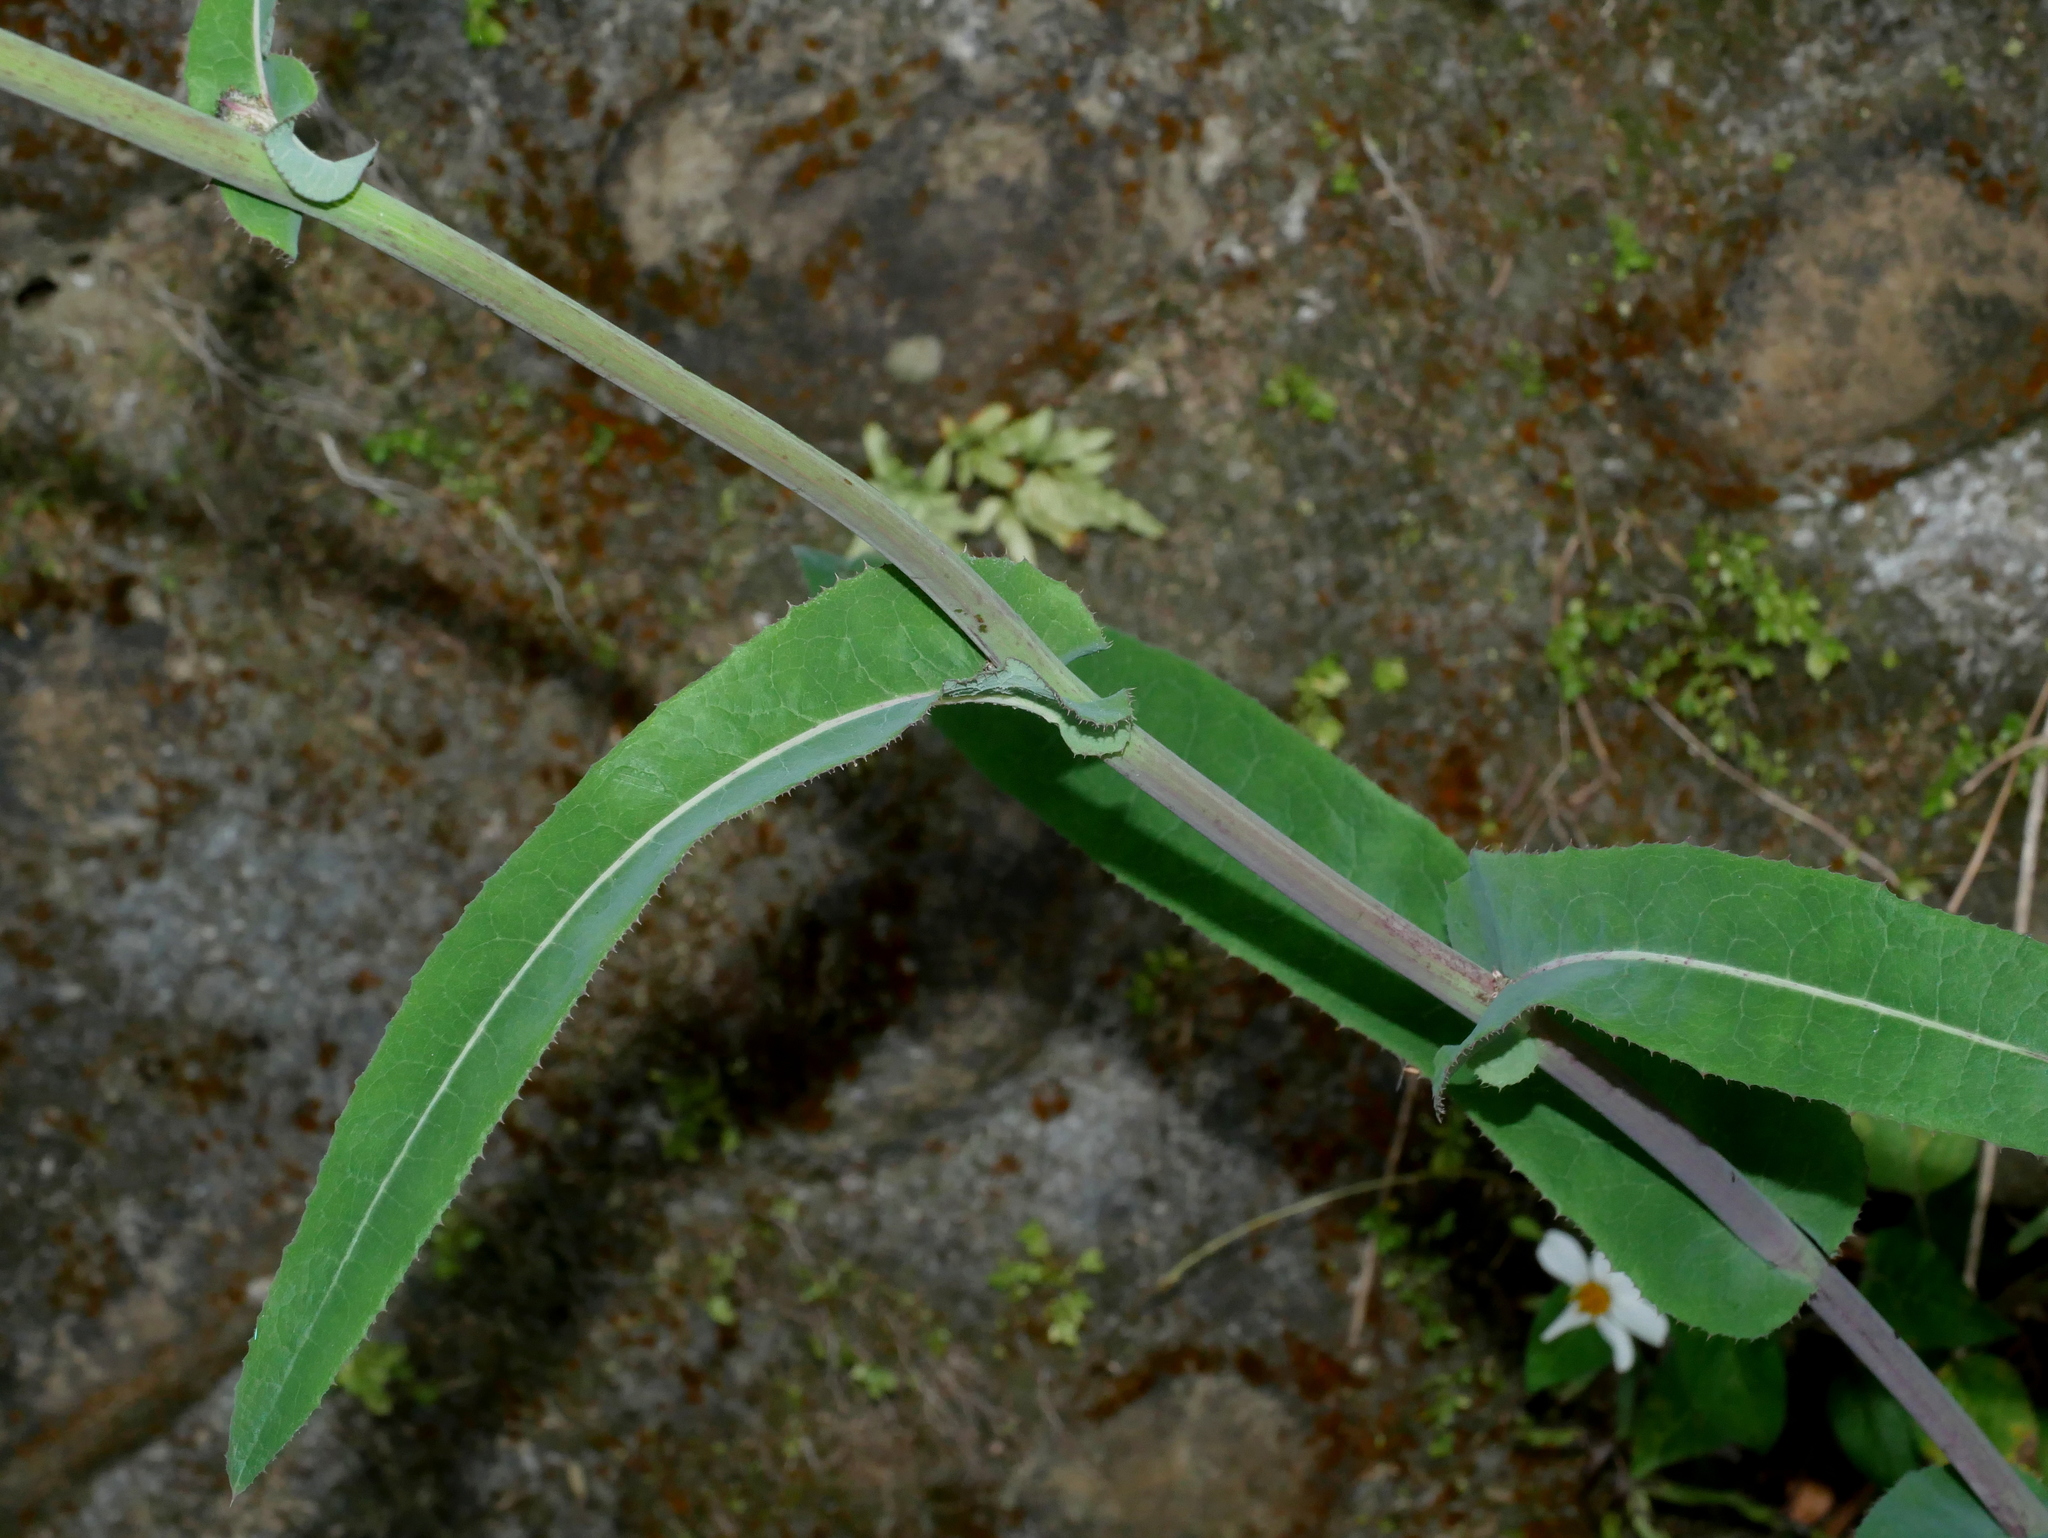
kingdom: Plantae
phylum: Tracheophyta
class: Magnoliopsida
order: Asterales
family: Asteraceae
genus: Sonchus
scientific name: Sonchus arvensis
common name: Perennial sow-thistle
